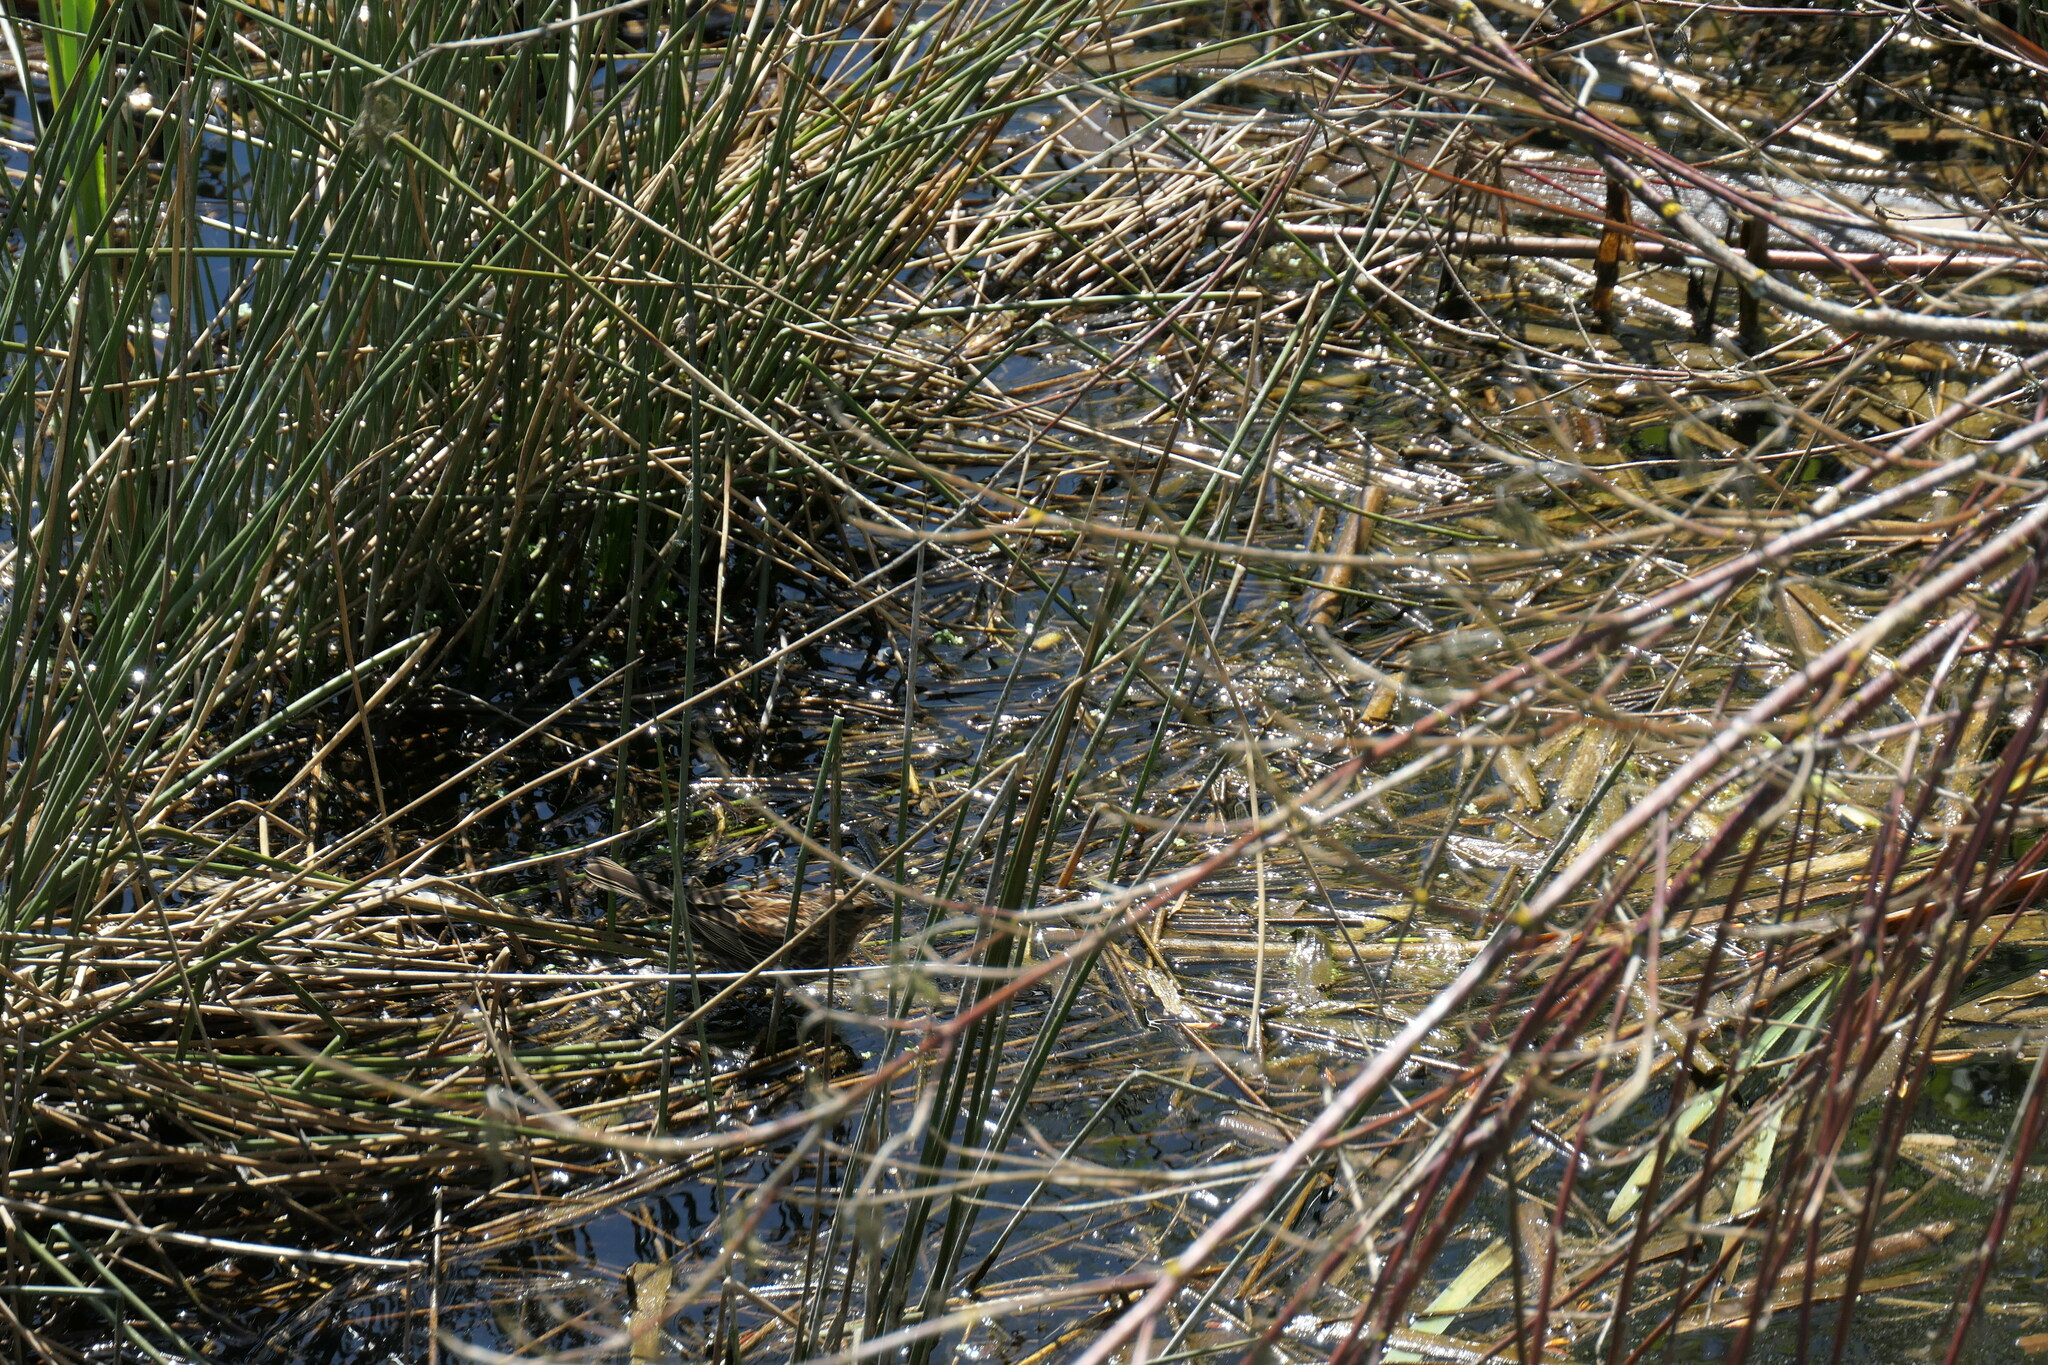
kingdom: Animalia
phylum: Chordata
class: Aves
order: Passeriformes
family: Icteridae
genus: Agelaius
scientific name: Agelaius phoeniceus
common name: Red-winged blackbird
